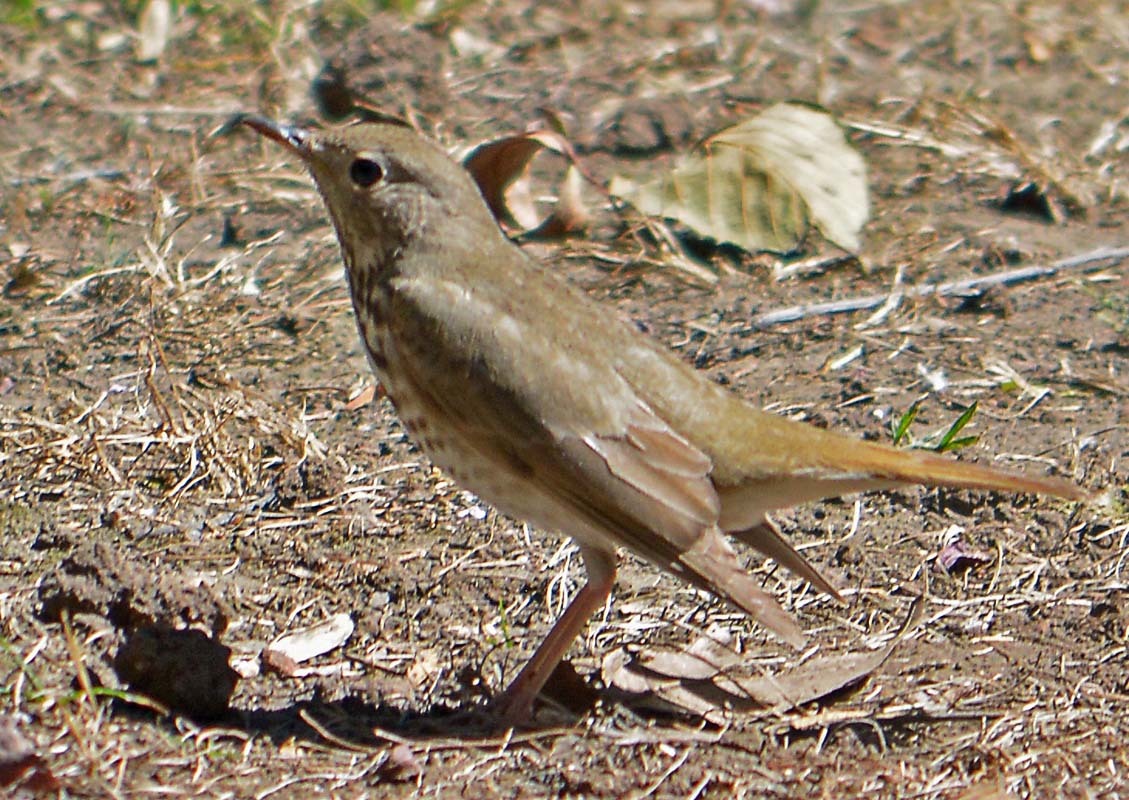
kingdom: Animalia
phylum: Chordata
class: Aves
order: Passeriformes
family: Turdidae
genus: Catharus
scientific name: Catharus guttatus
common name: Hermit thrush
